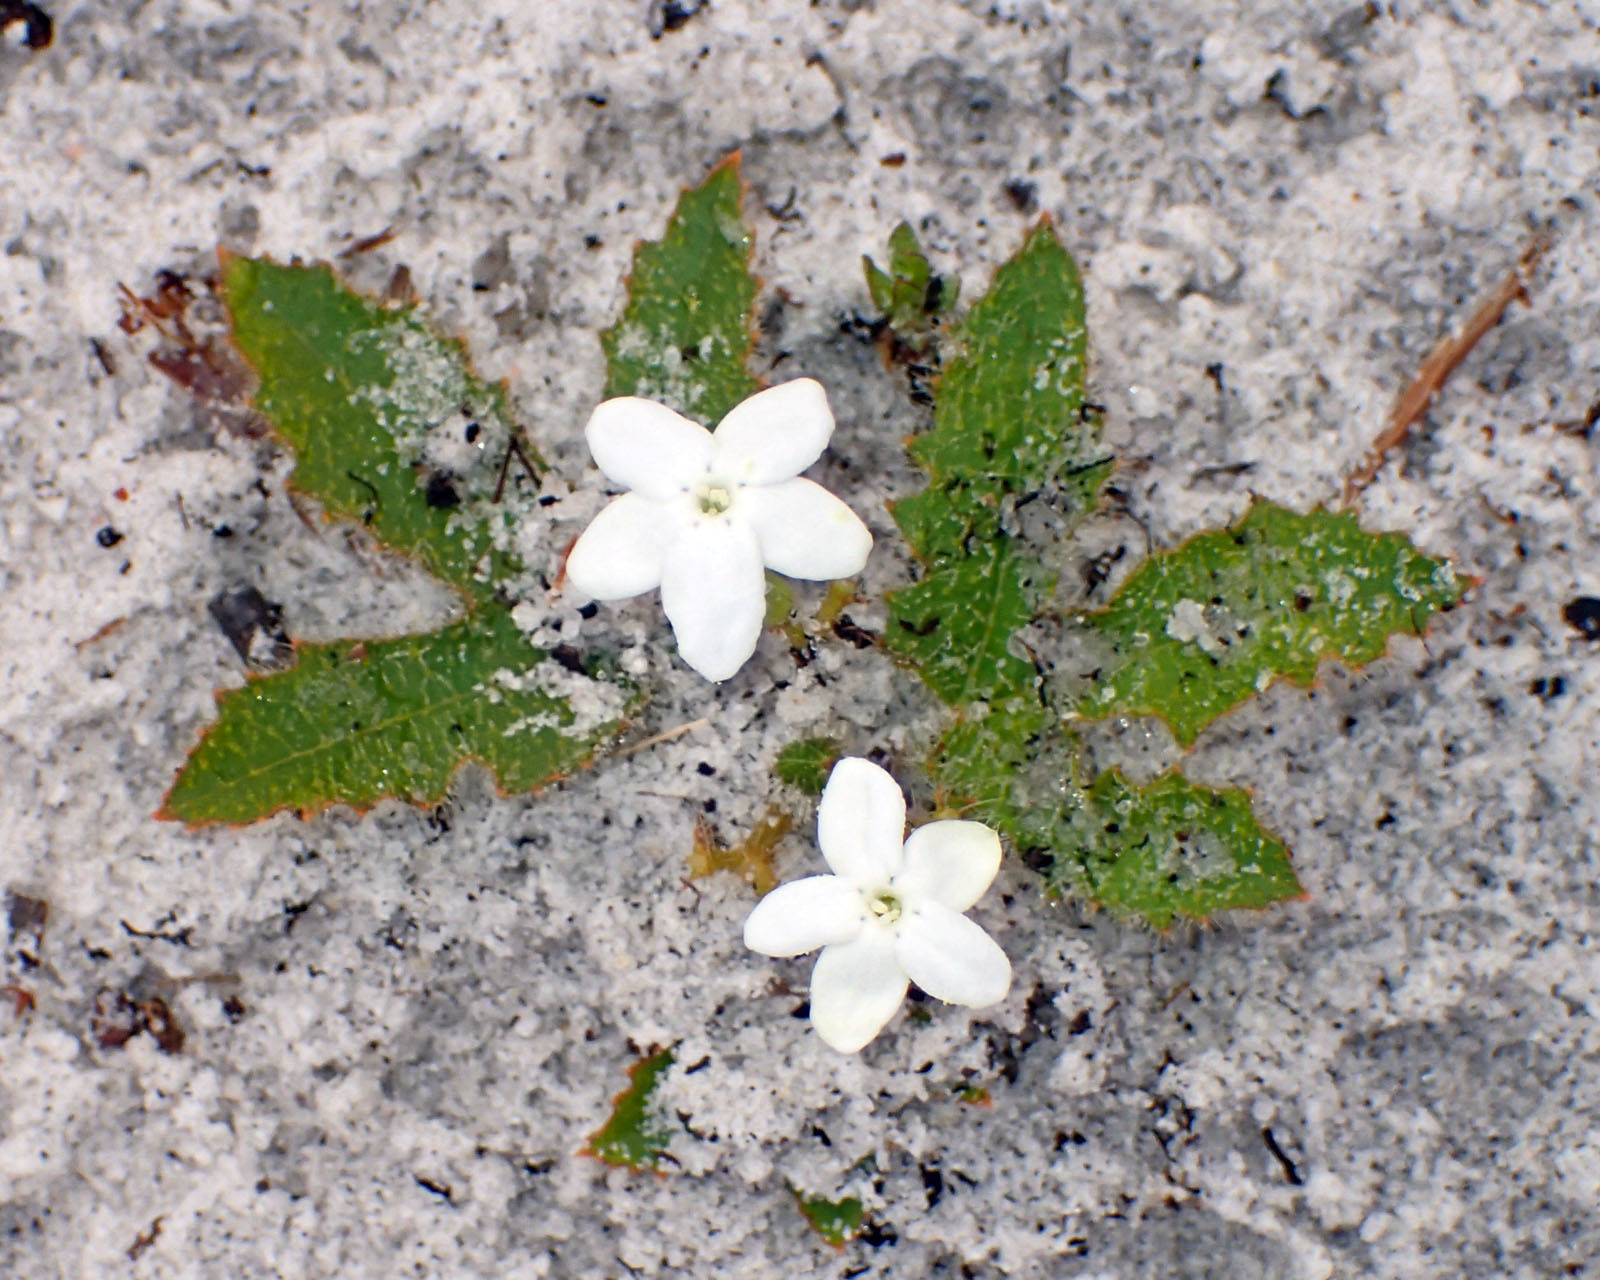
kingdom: Plantae
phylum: Tracheophyta
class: Magnoliopsida
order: Malpighiales
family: Euphorbiaceae
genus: Cnidoscolus
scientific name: Cnidoscolus stimulosus
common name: Bull-nettle
